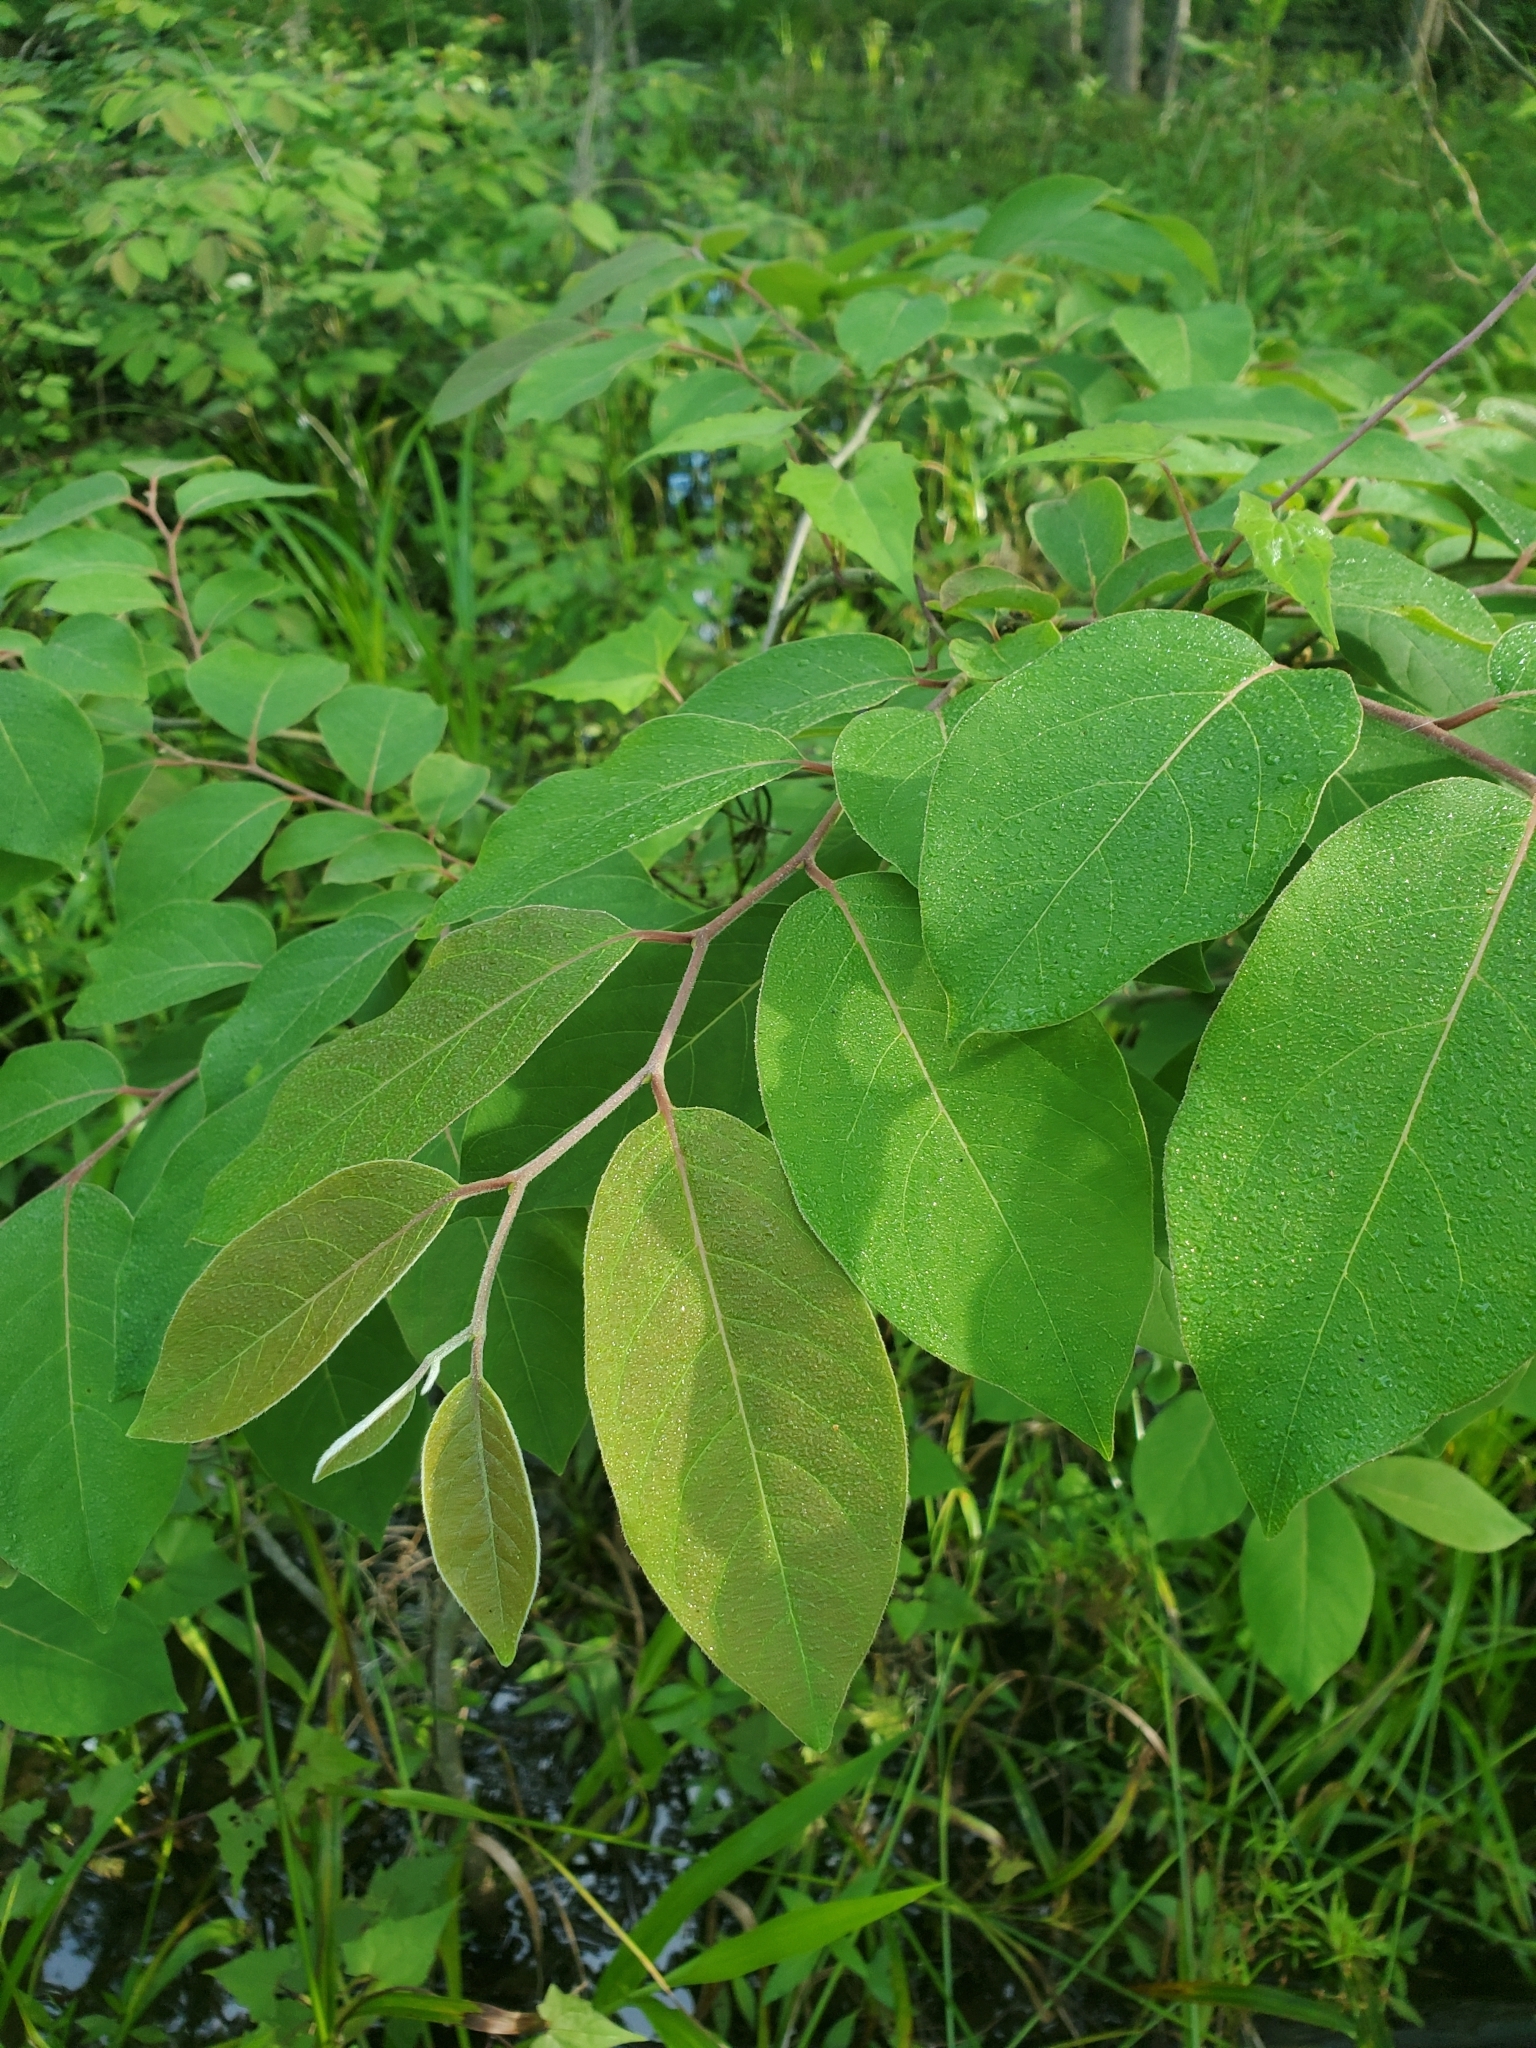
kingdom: Plantae
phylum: Tracheophyta
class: Magnoliopsida
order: Ericales
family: Ebenaceae
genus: Diospyros
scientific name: Diospyros virginiana
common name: Persimmon
